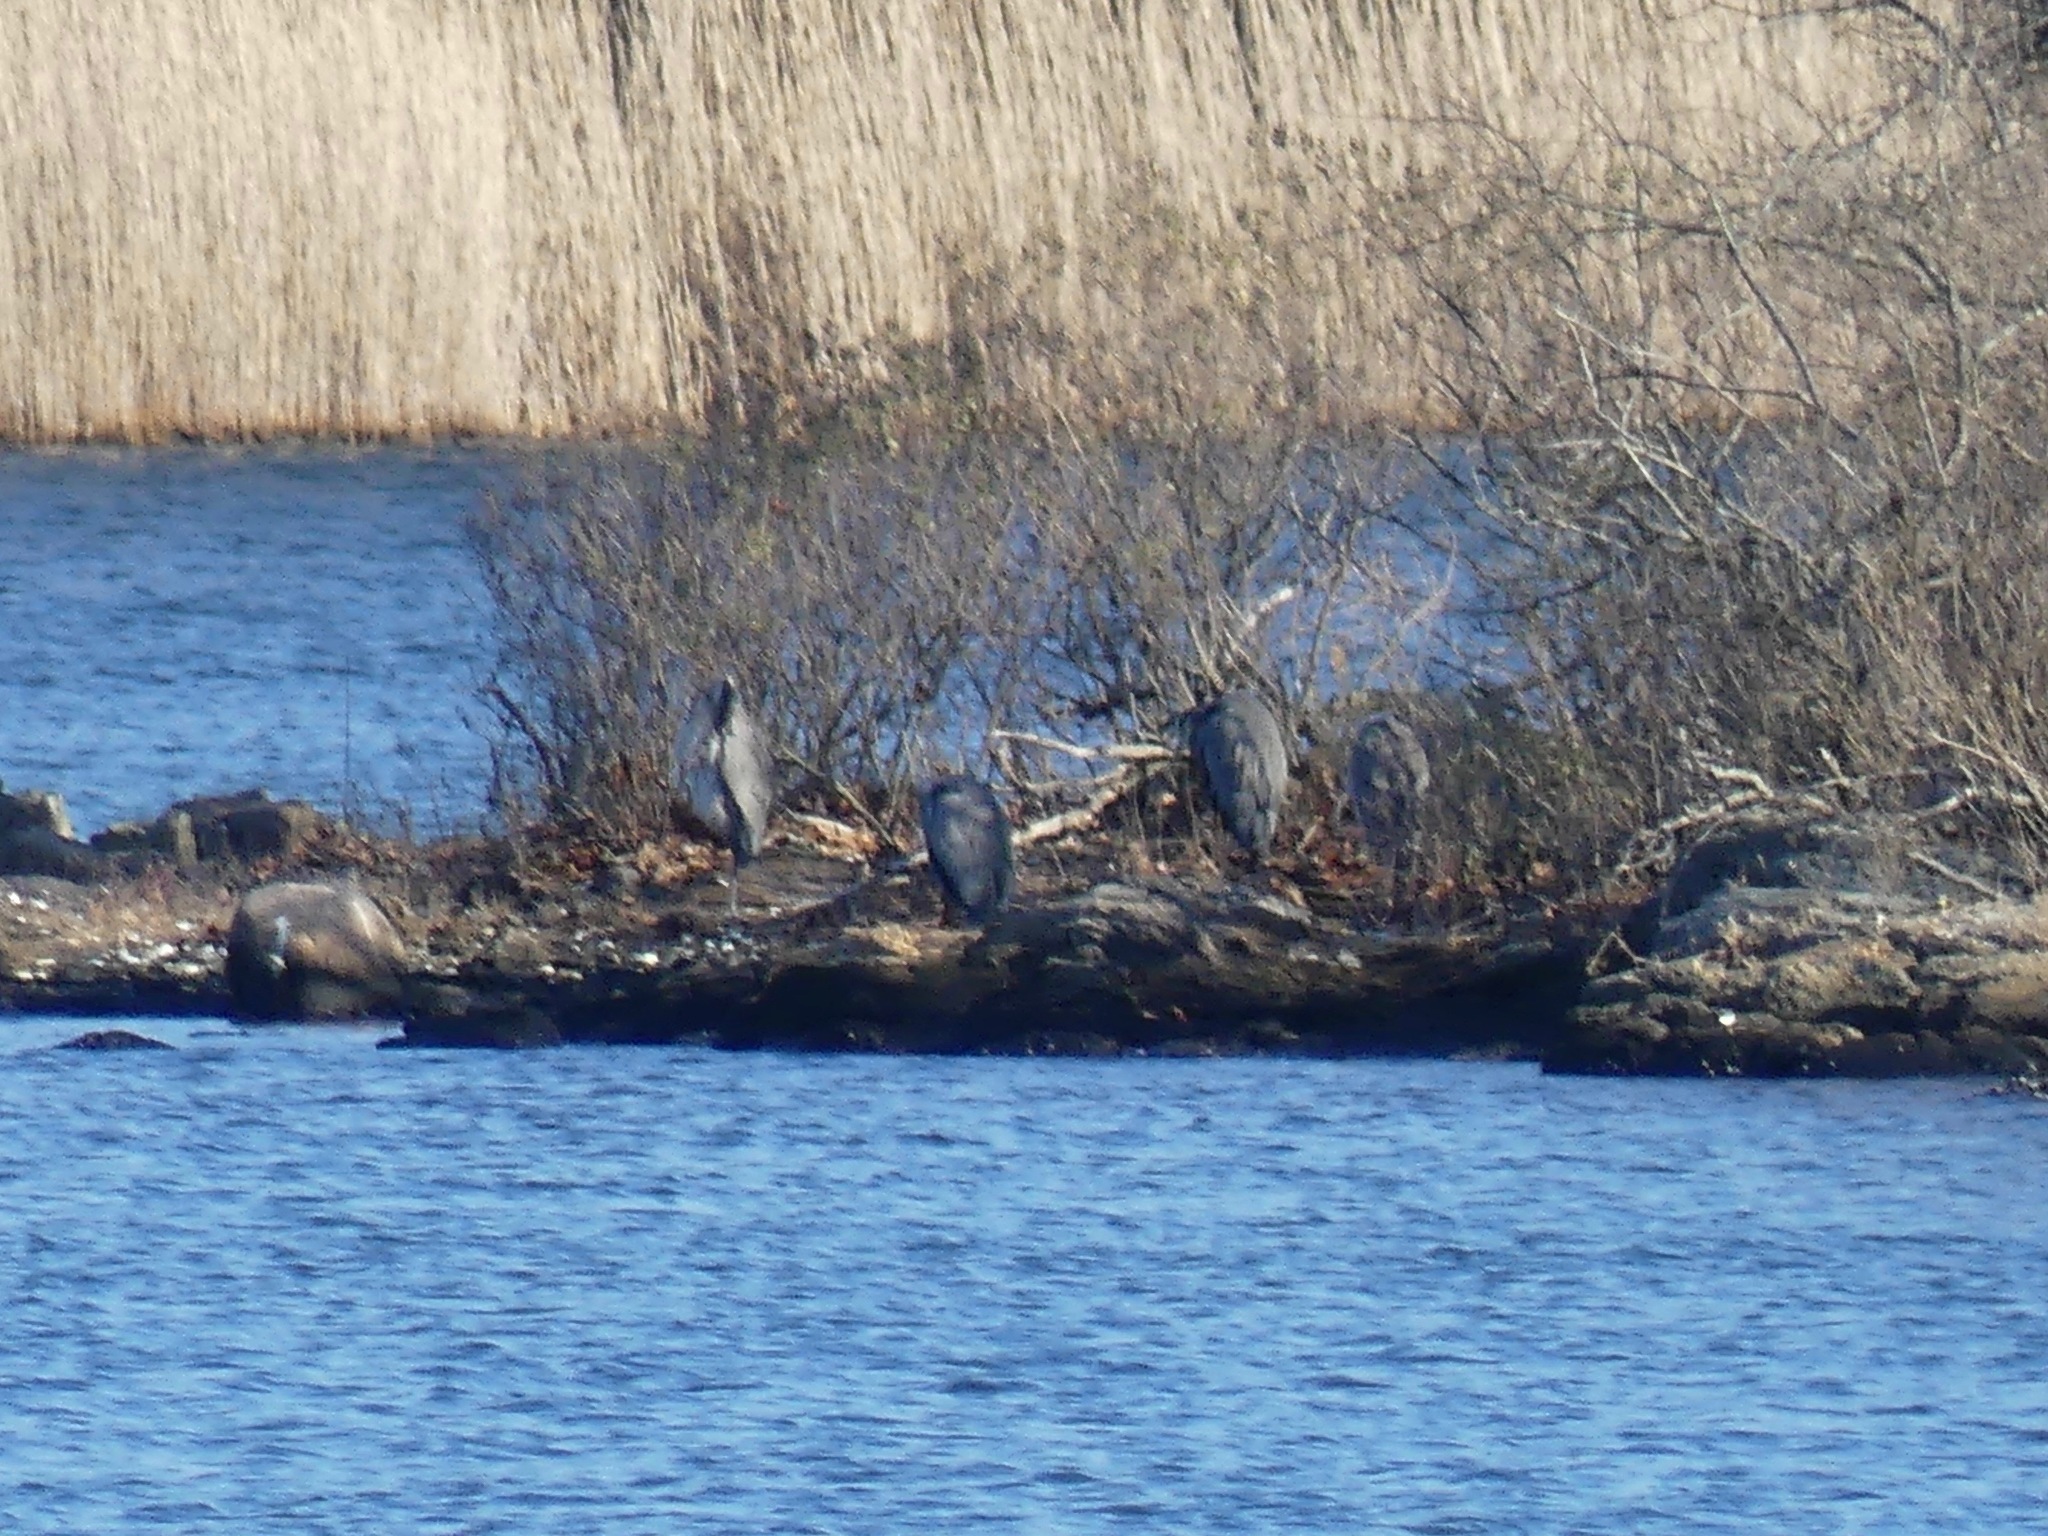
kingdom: Animalia
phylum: Chordata
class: Aves
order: Pelecaniformes
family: Ardeidae
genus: Ardea
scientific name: Ardea herodias
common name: Great blue heron
